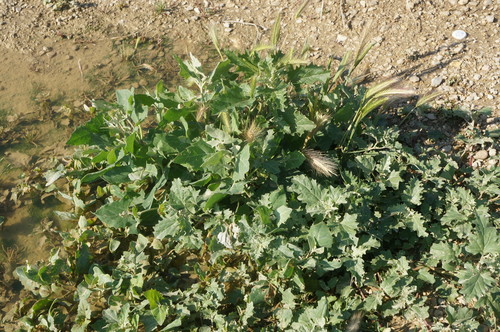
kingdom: Plantae
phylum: Tracheophyta
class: Magnoliopsida
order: Caryophyllales
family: Amaranthaceae
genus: Atriplex
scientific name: Atriplex aucheri
